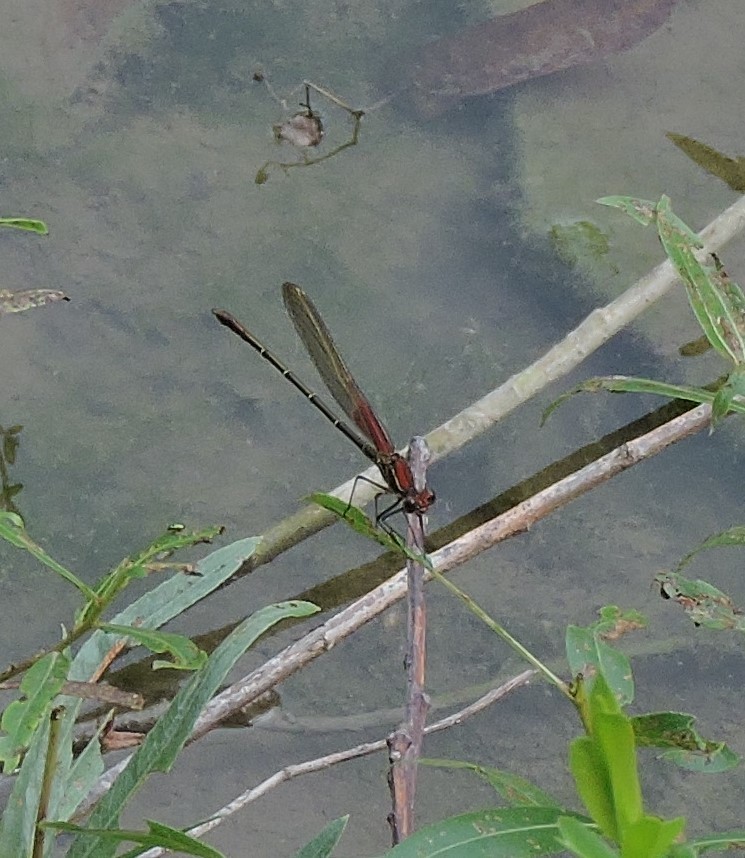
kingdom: Animalia
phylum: Arthropoda
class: Insecta
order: Odonata
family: Calopterygidae
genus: Hetaerina
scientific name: Hetaerina americana
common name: American rubyspot
